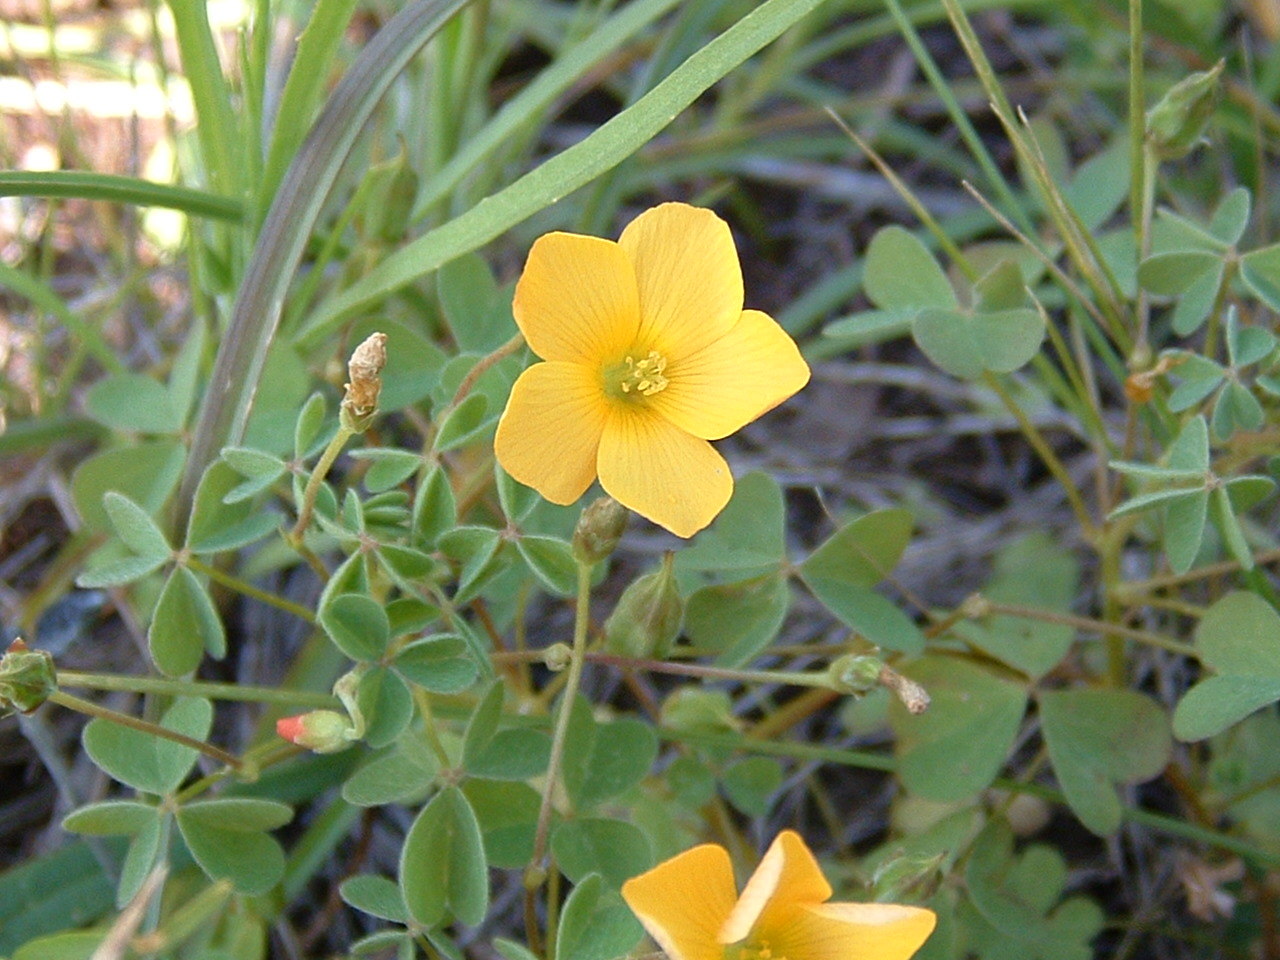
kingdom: Plantae
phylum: Tracheophyta
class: Magnoliopsida
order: Oxalidales
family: Oxalidaceae
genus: Oxalis
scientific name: Oxalis californica
